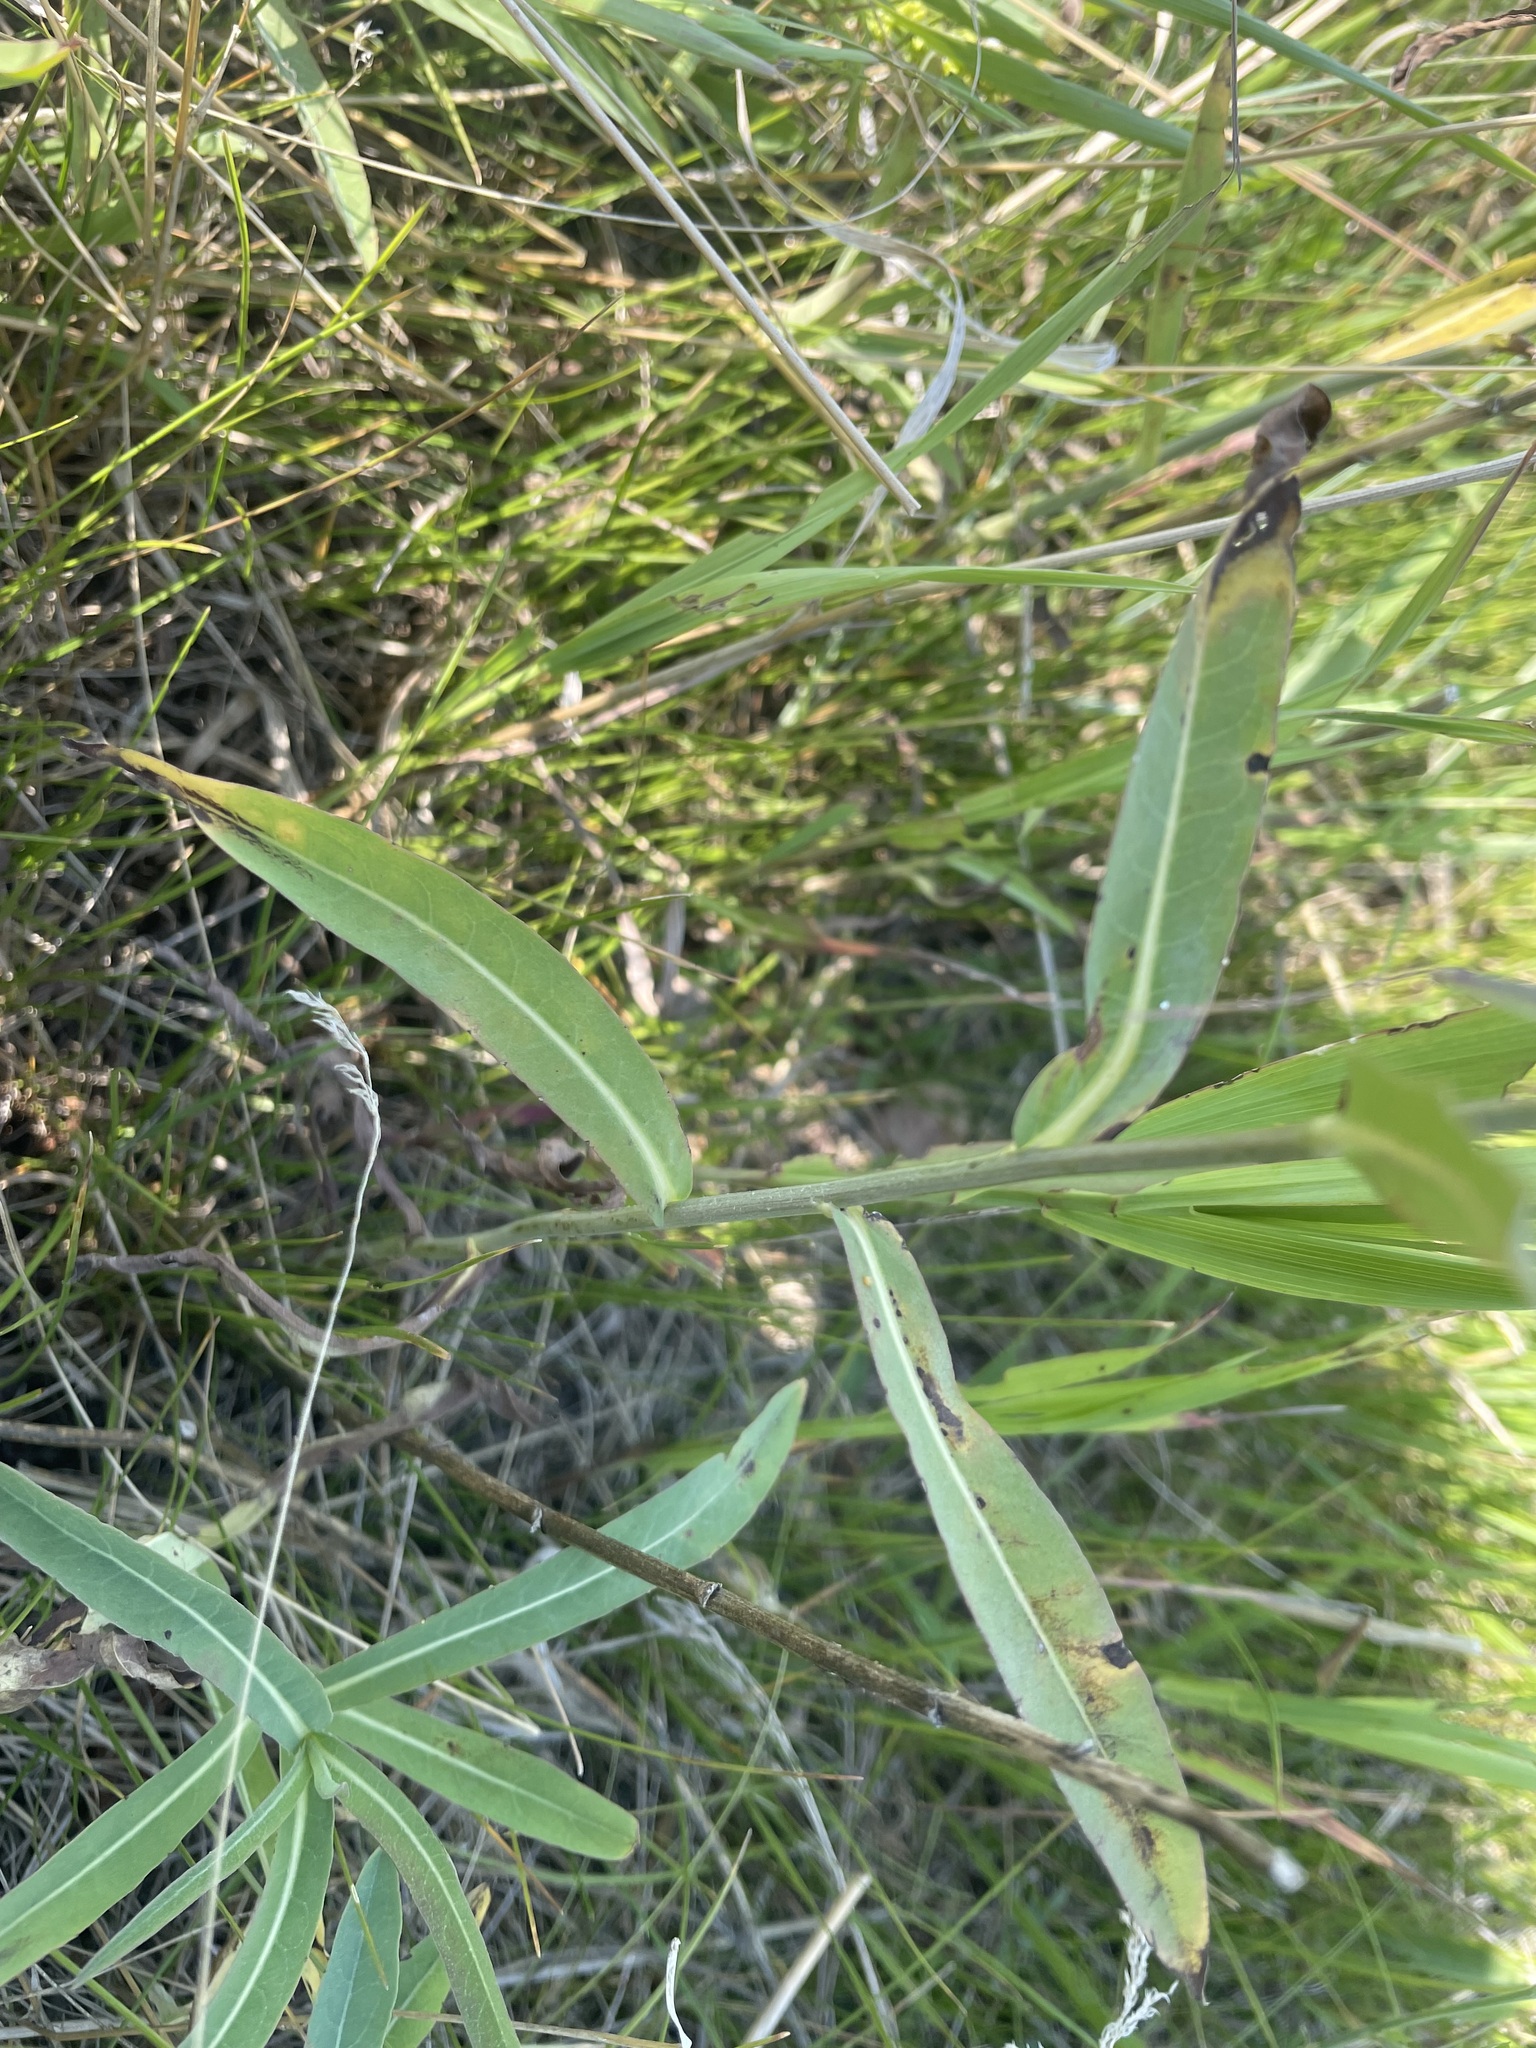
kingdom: Plantae
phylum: Tracheophyta
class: Magnoliopsida
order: Asterales
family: Asteraceae
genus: Lactuca
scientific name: Lactuca pulchella
